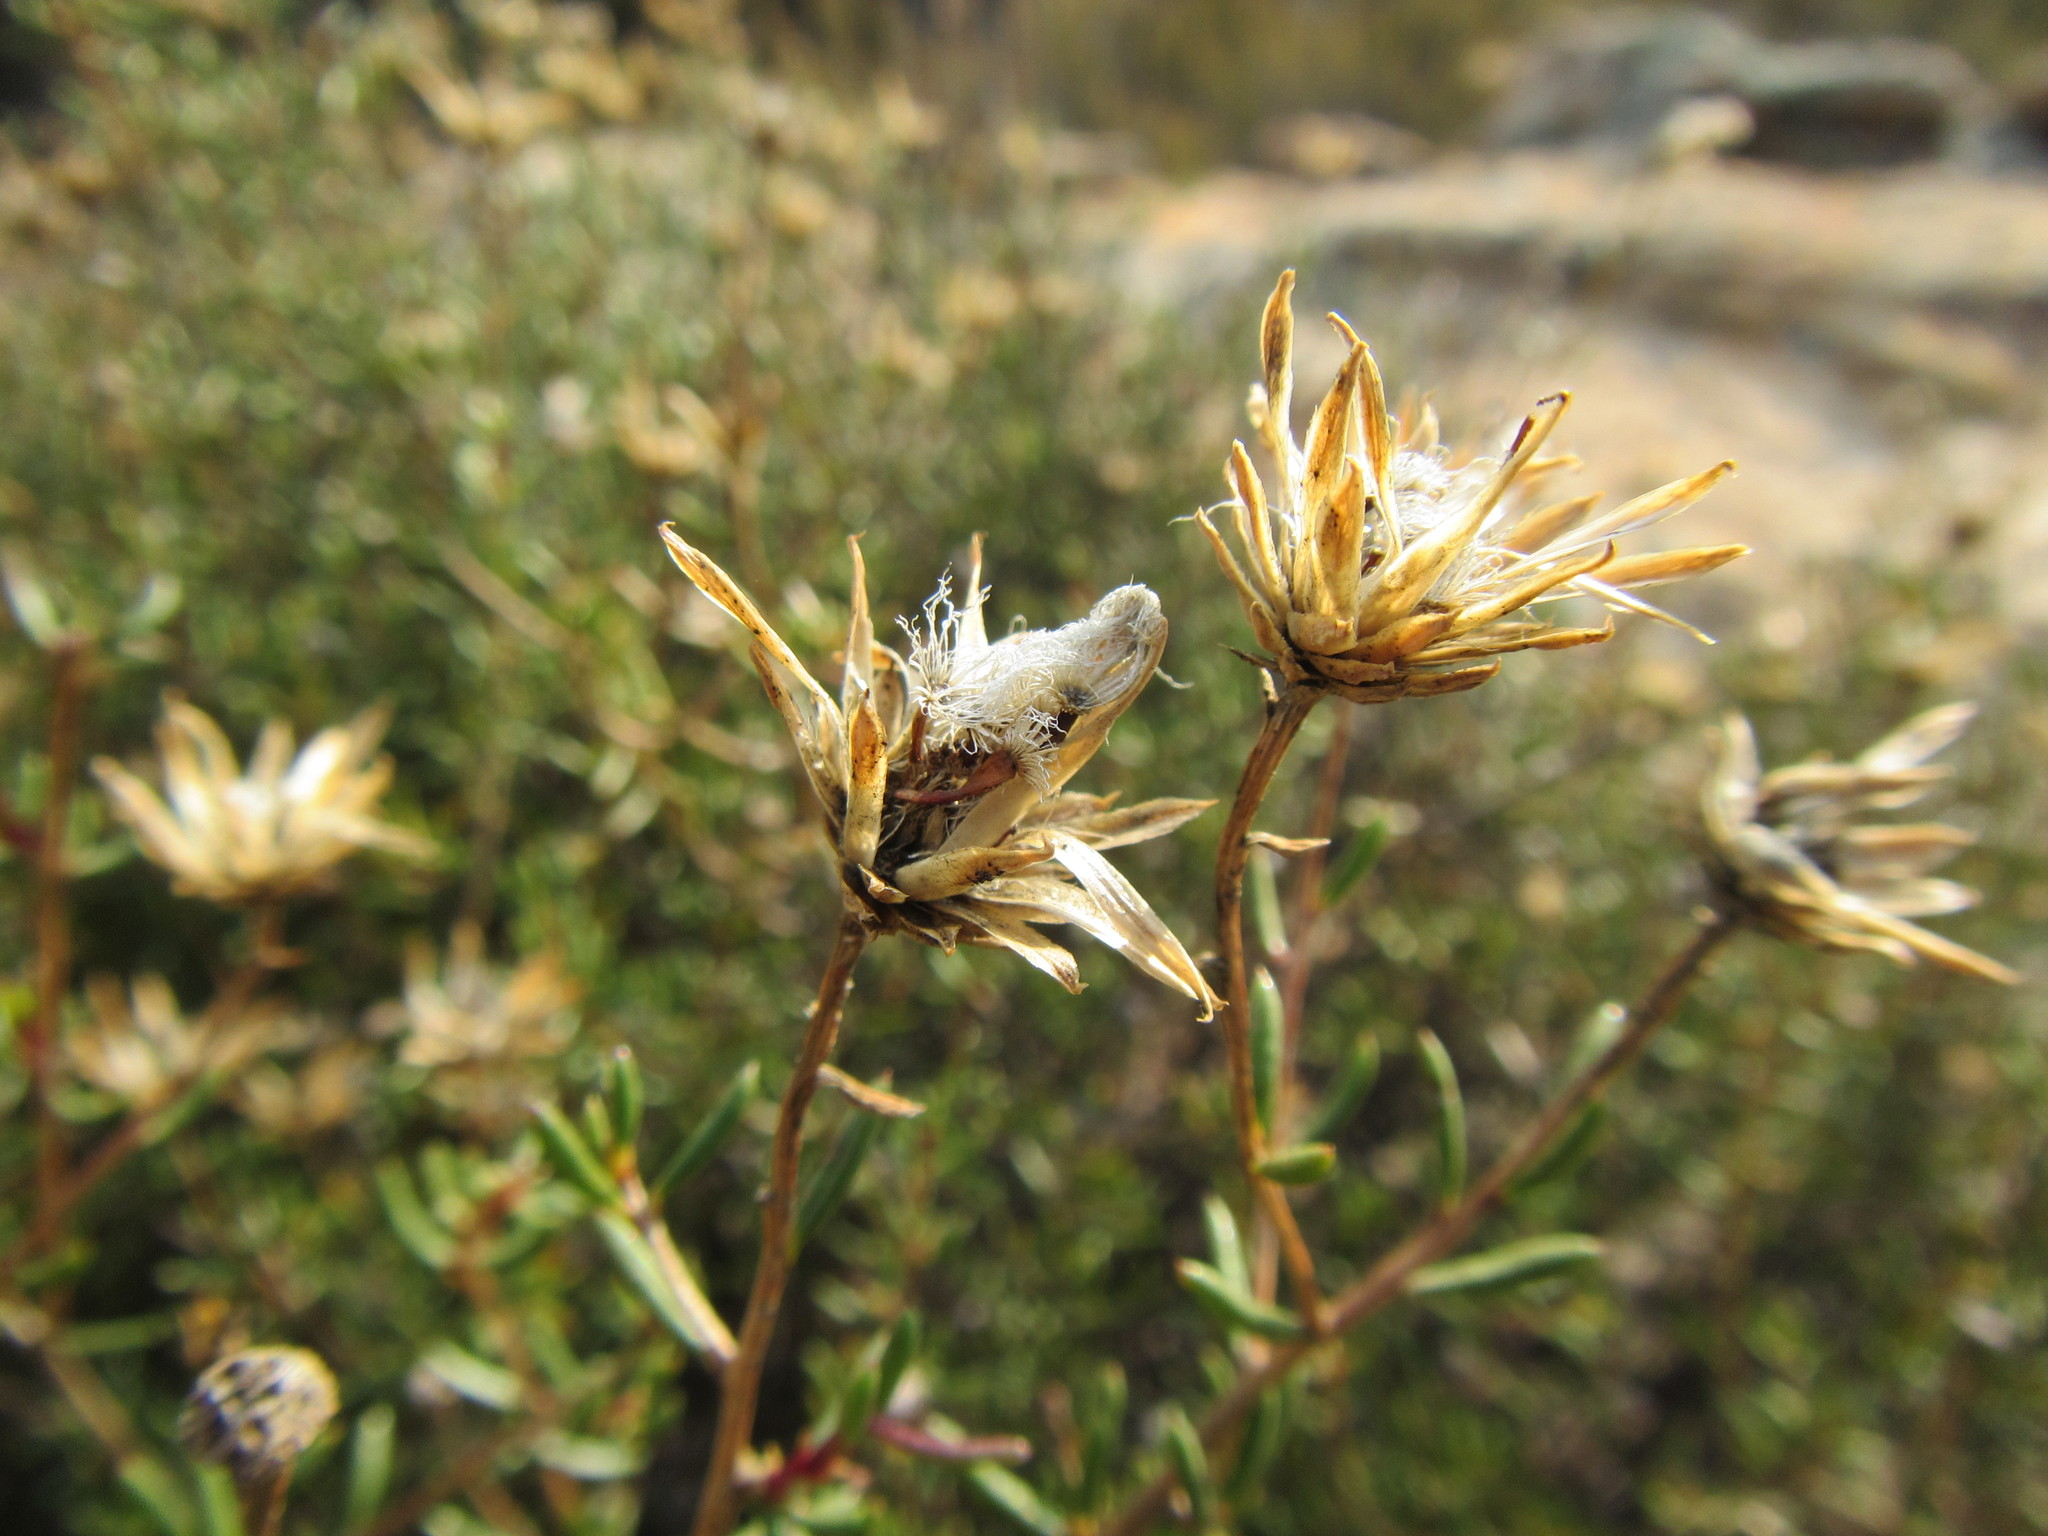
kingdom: Plantae
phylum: Tracheophyta
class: Magnoliopsida
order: Asterales
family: Asteraceae
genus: Pteronia
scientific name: Pteronia cederbergensis
